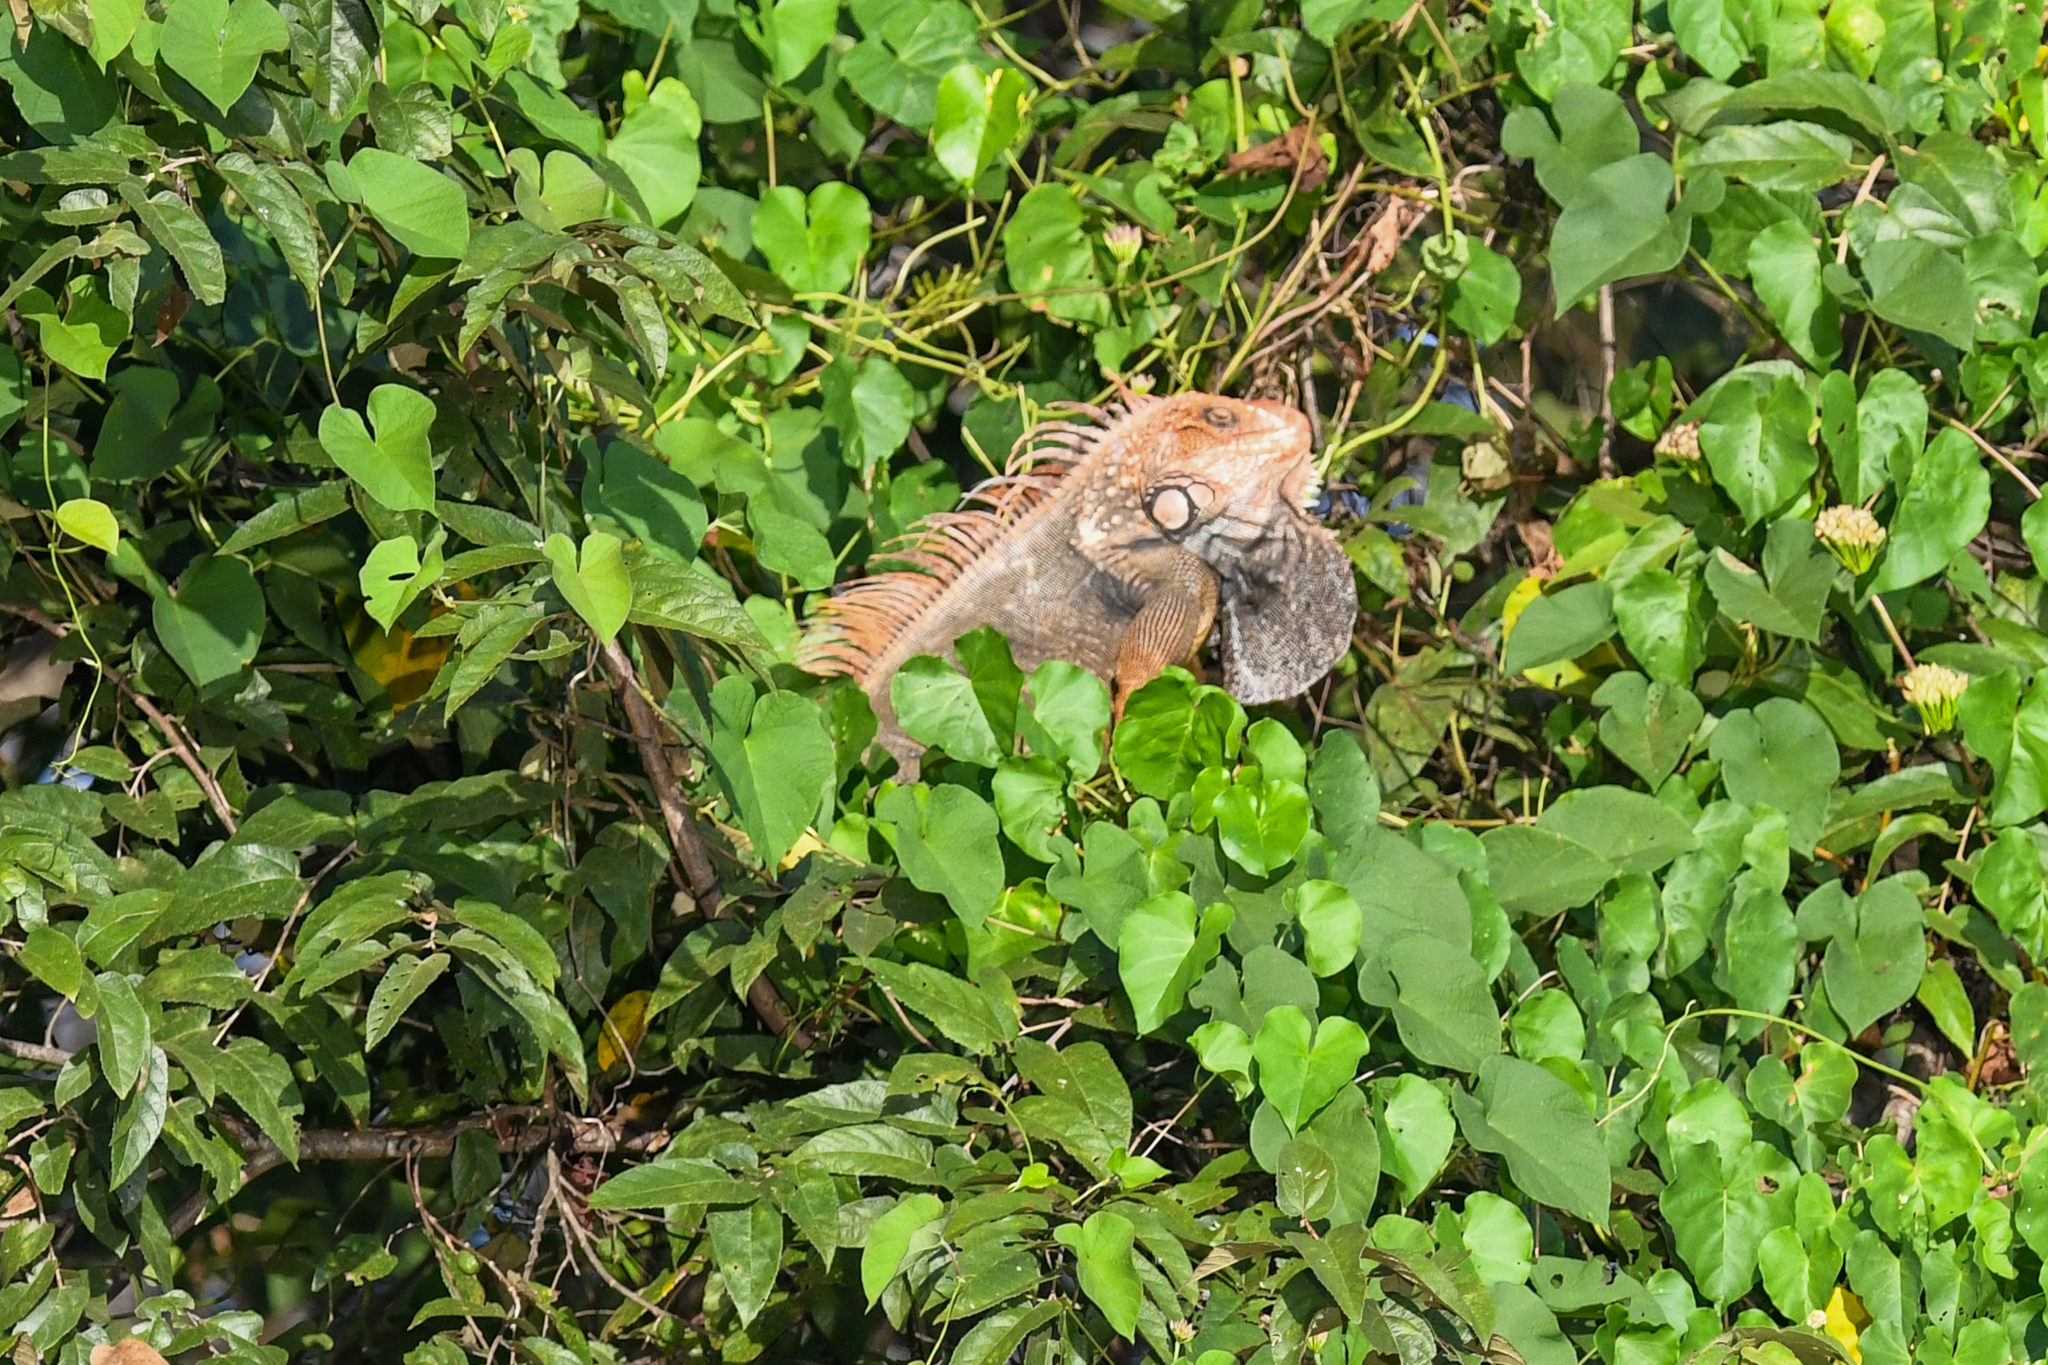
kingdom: Animalia
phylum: Chordata
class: Squamata
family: Iguanidae
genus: Iguana
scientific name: Iguana iguana
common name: Green iguana
